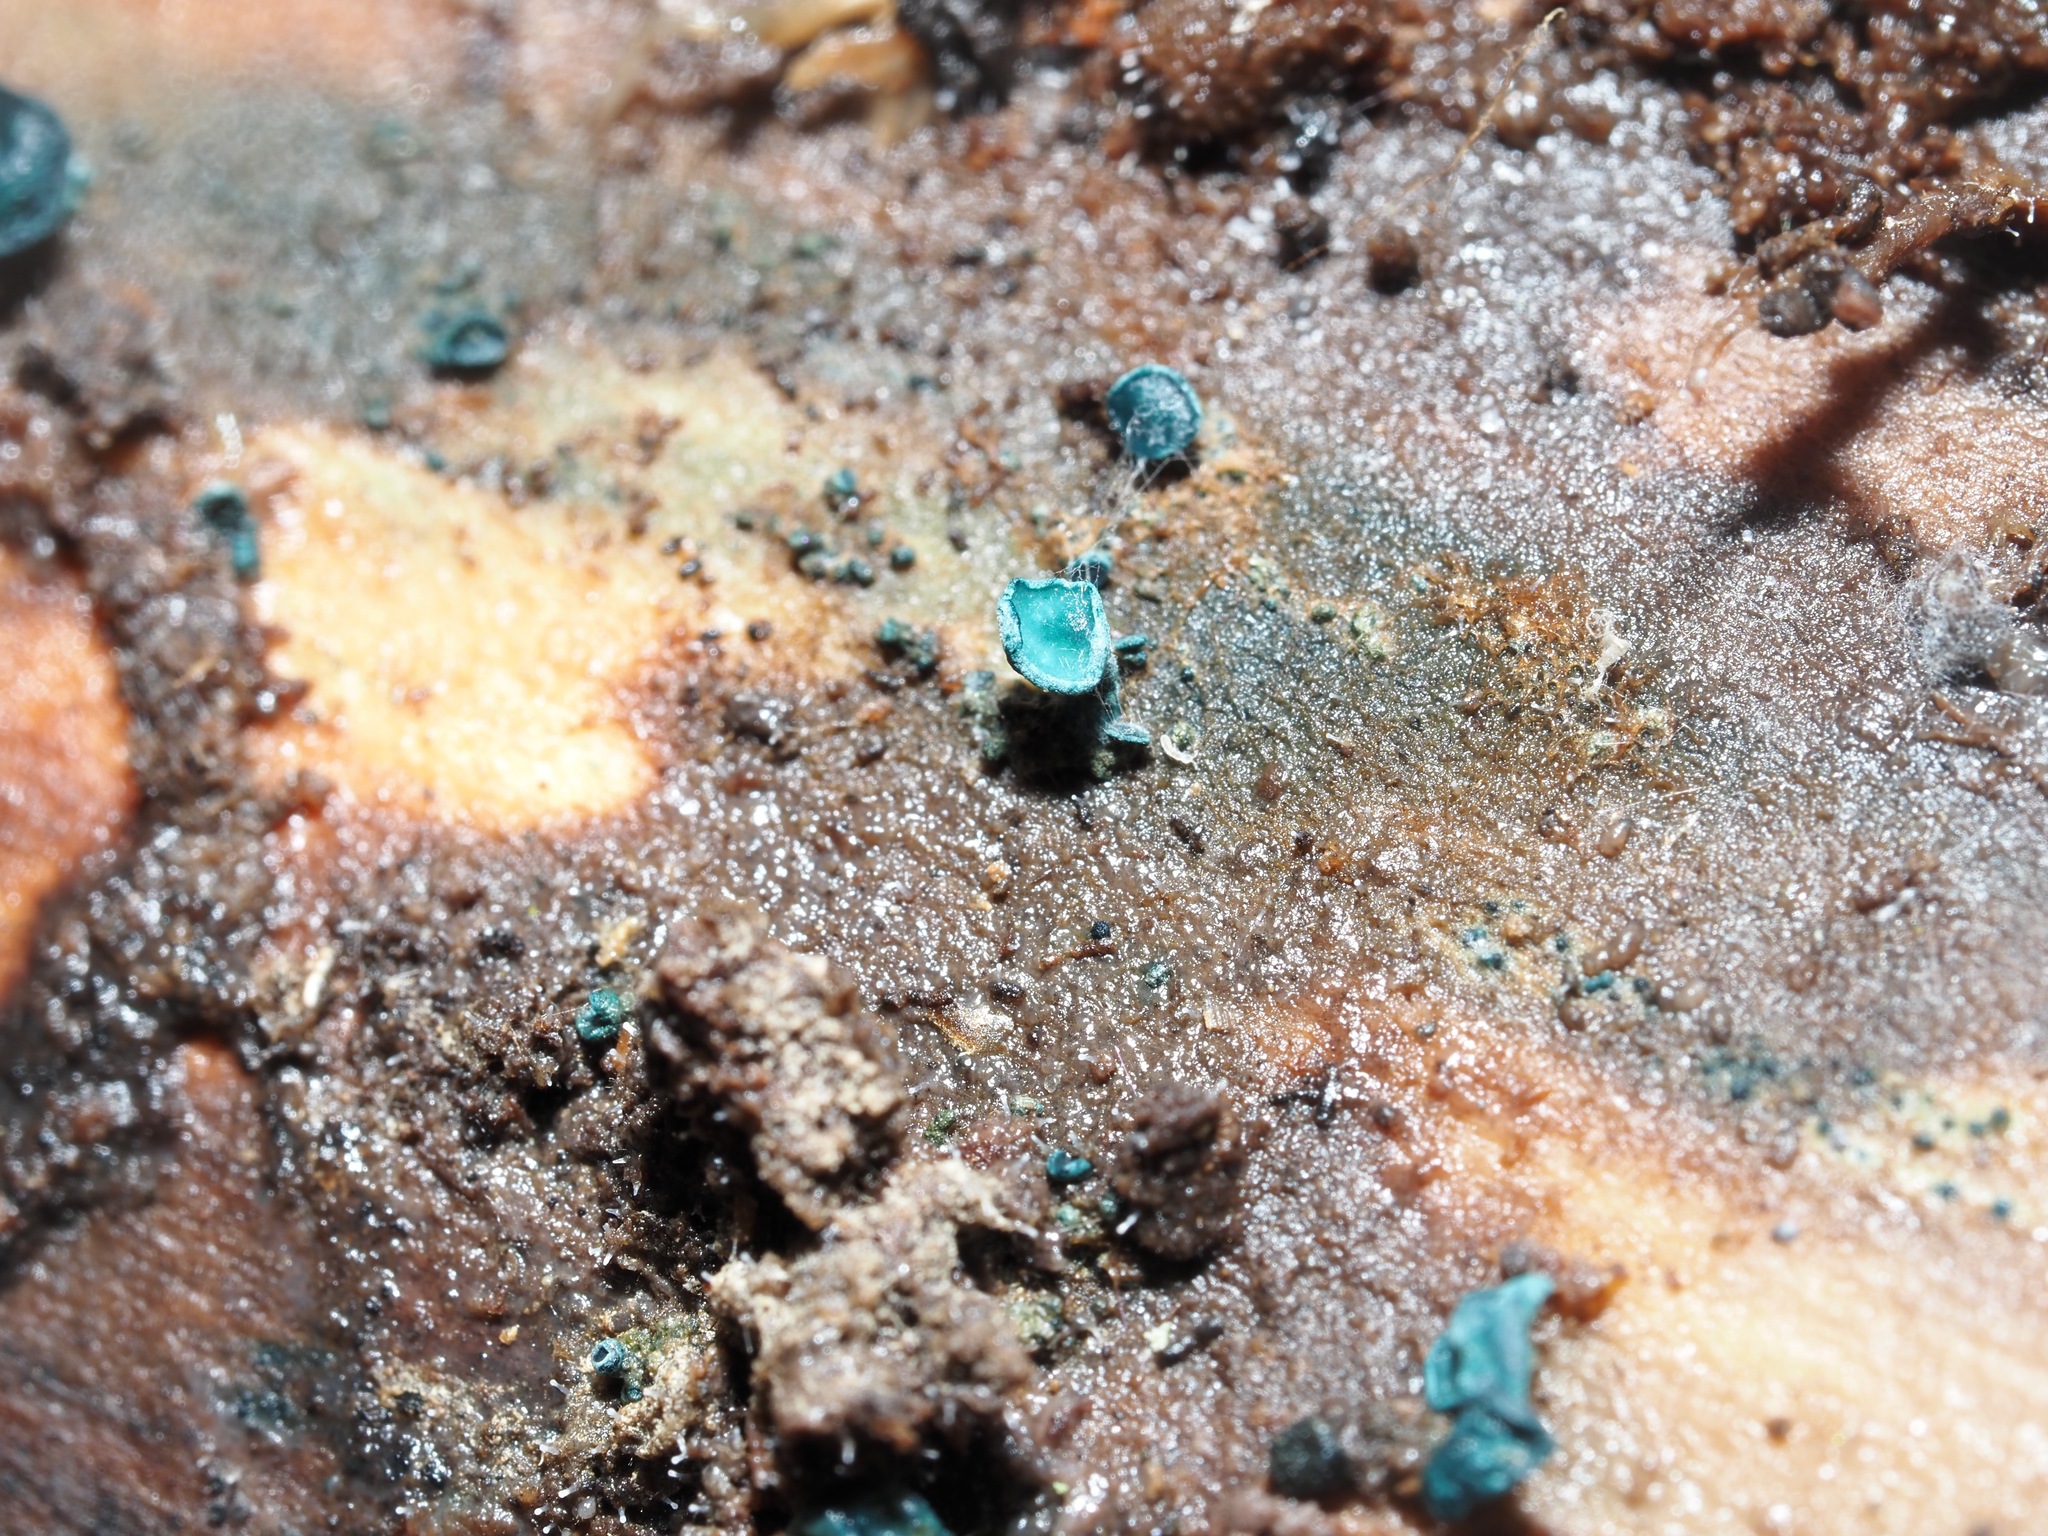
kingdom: Fungi
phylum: Ascomycota
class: Leotiomycetes
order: Helotiales
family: Chlorociboriaceae
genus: Chlorociboria
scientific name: Chlorociboria aeruginascens
